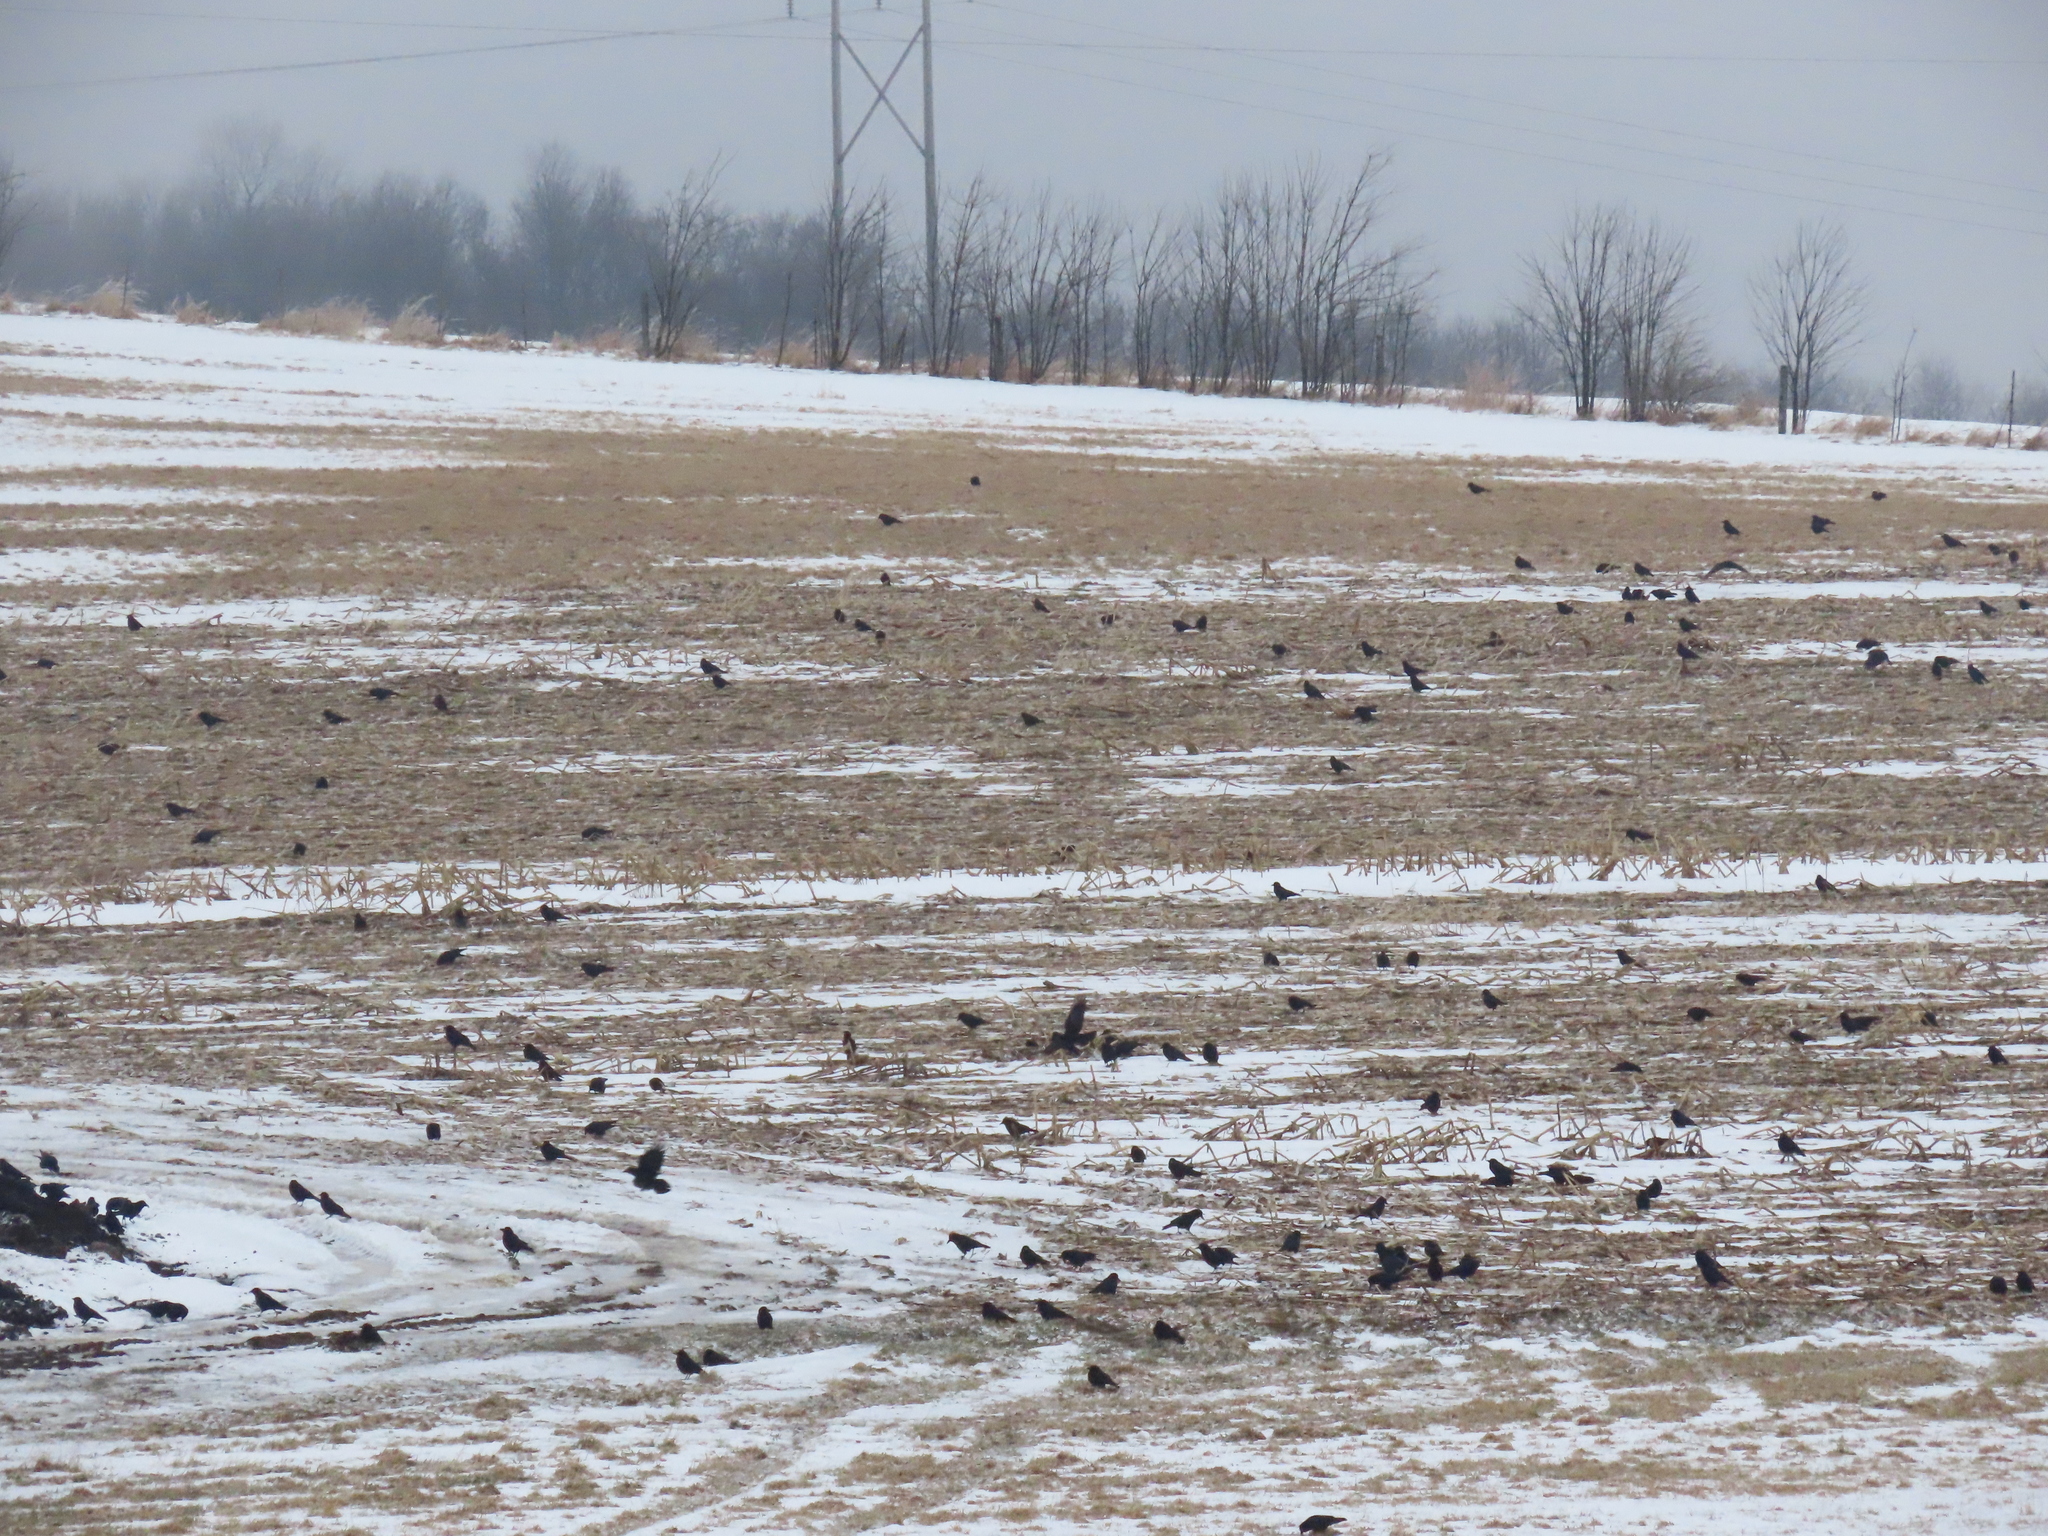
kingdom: Animalia
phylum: Chordata
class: Aves
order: Passeriformes
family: Corvidae
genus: Corvus
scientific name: Corvus brachyrhynchos
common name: American crow
